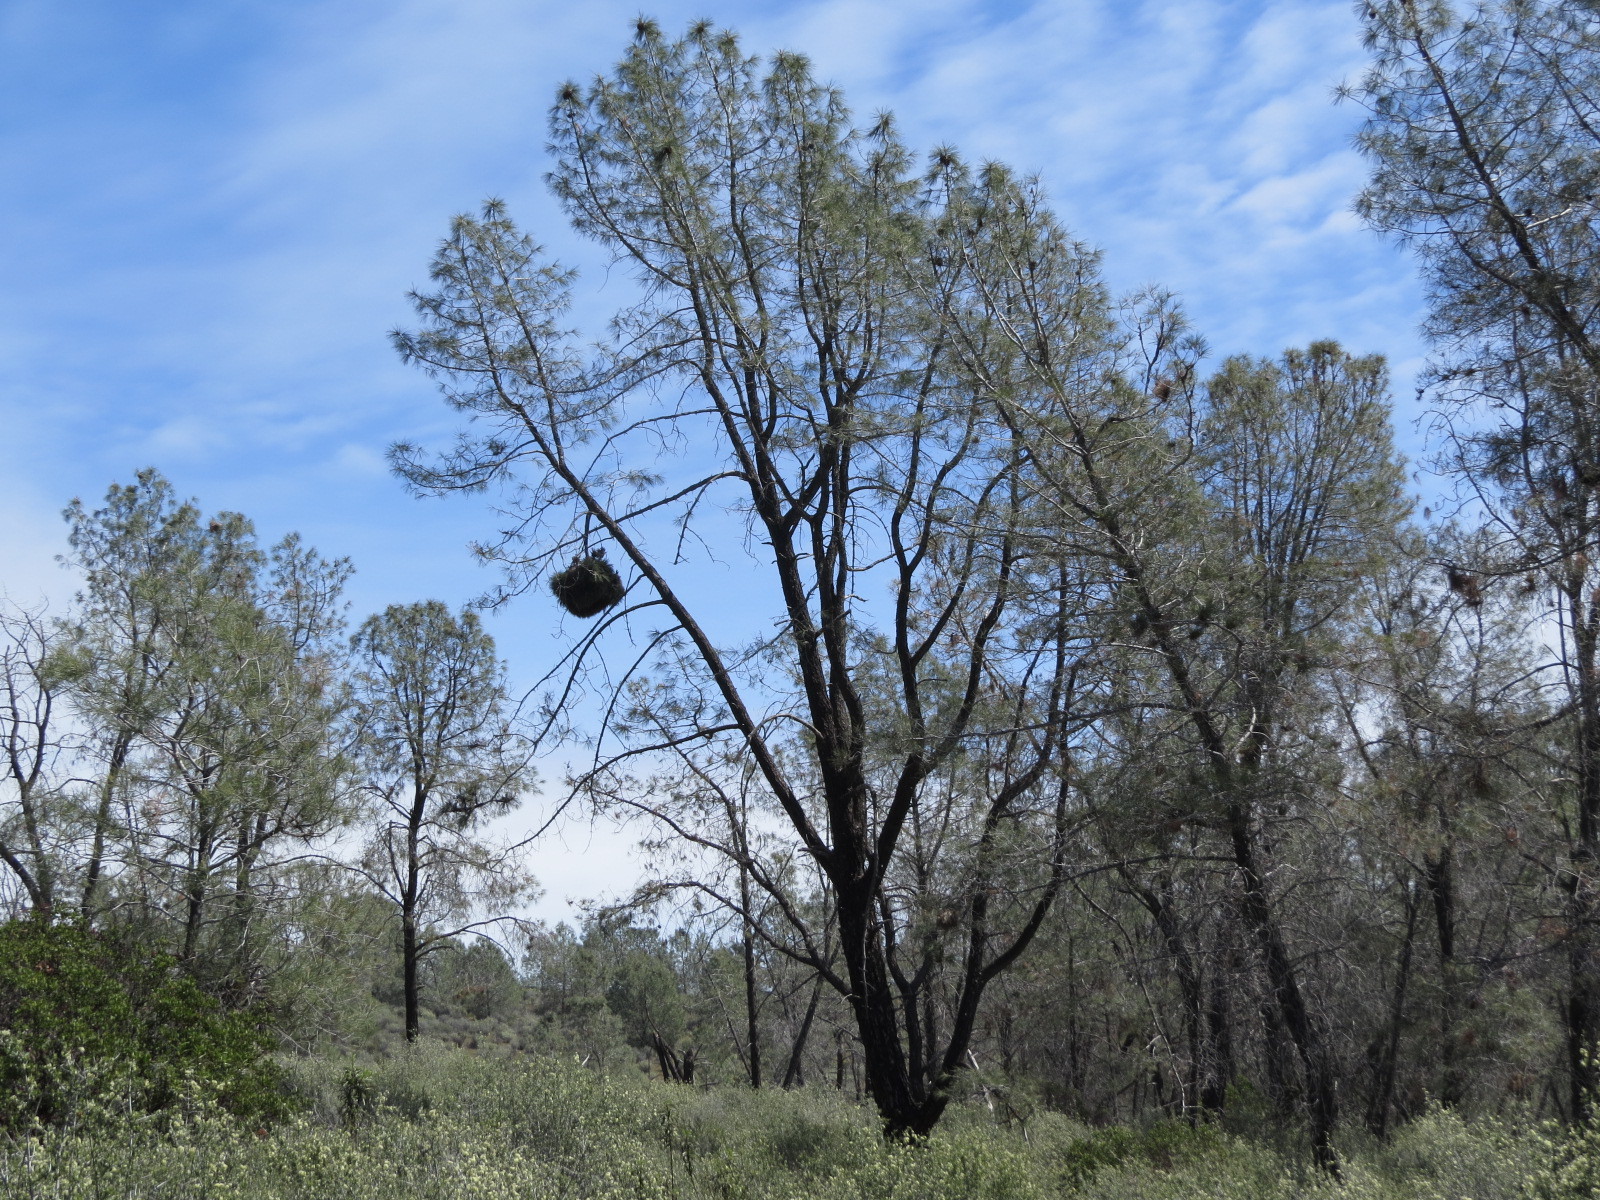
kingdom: Plantae
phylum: Tracheophyta
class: Pinopsida
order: Pinales
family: Pinaceae
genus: Pinus
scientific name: Pinus sabiniana
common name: Bull pine
